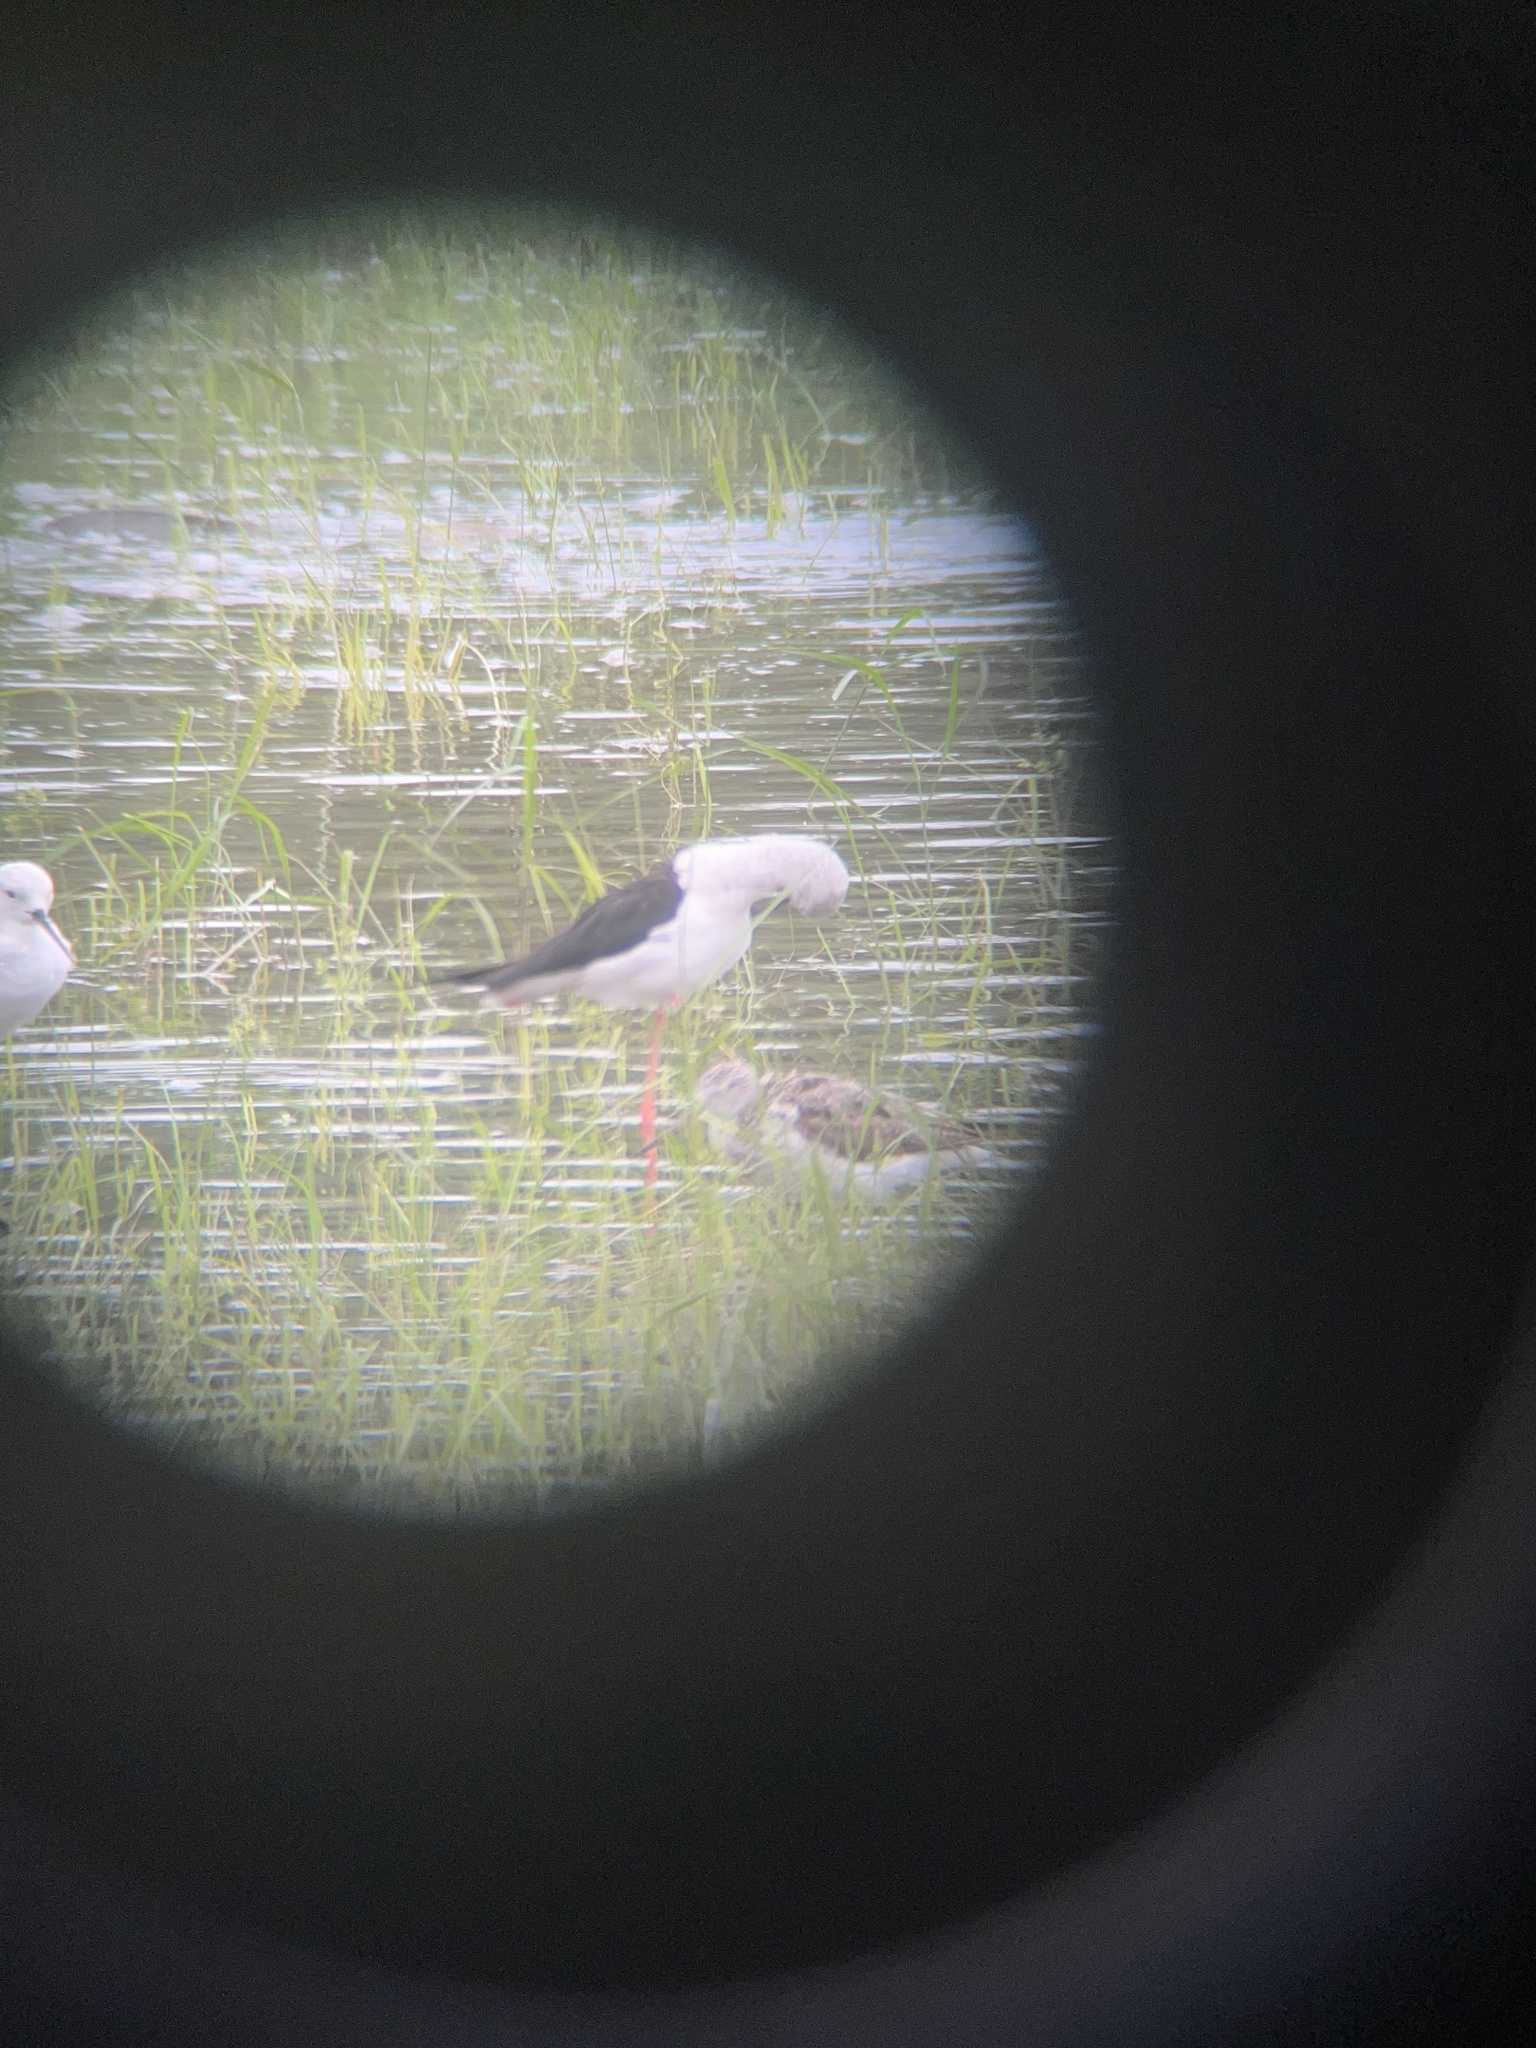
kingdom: Animalia
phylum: Chordata
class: Aves
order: Charadriiformes
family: Recurvirostridae
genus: Himantopus
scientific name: Himantopus himantopus
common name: Black-winged stilt
